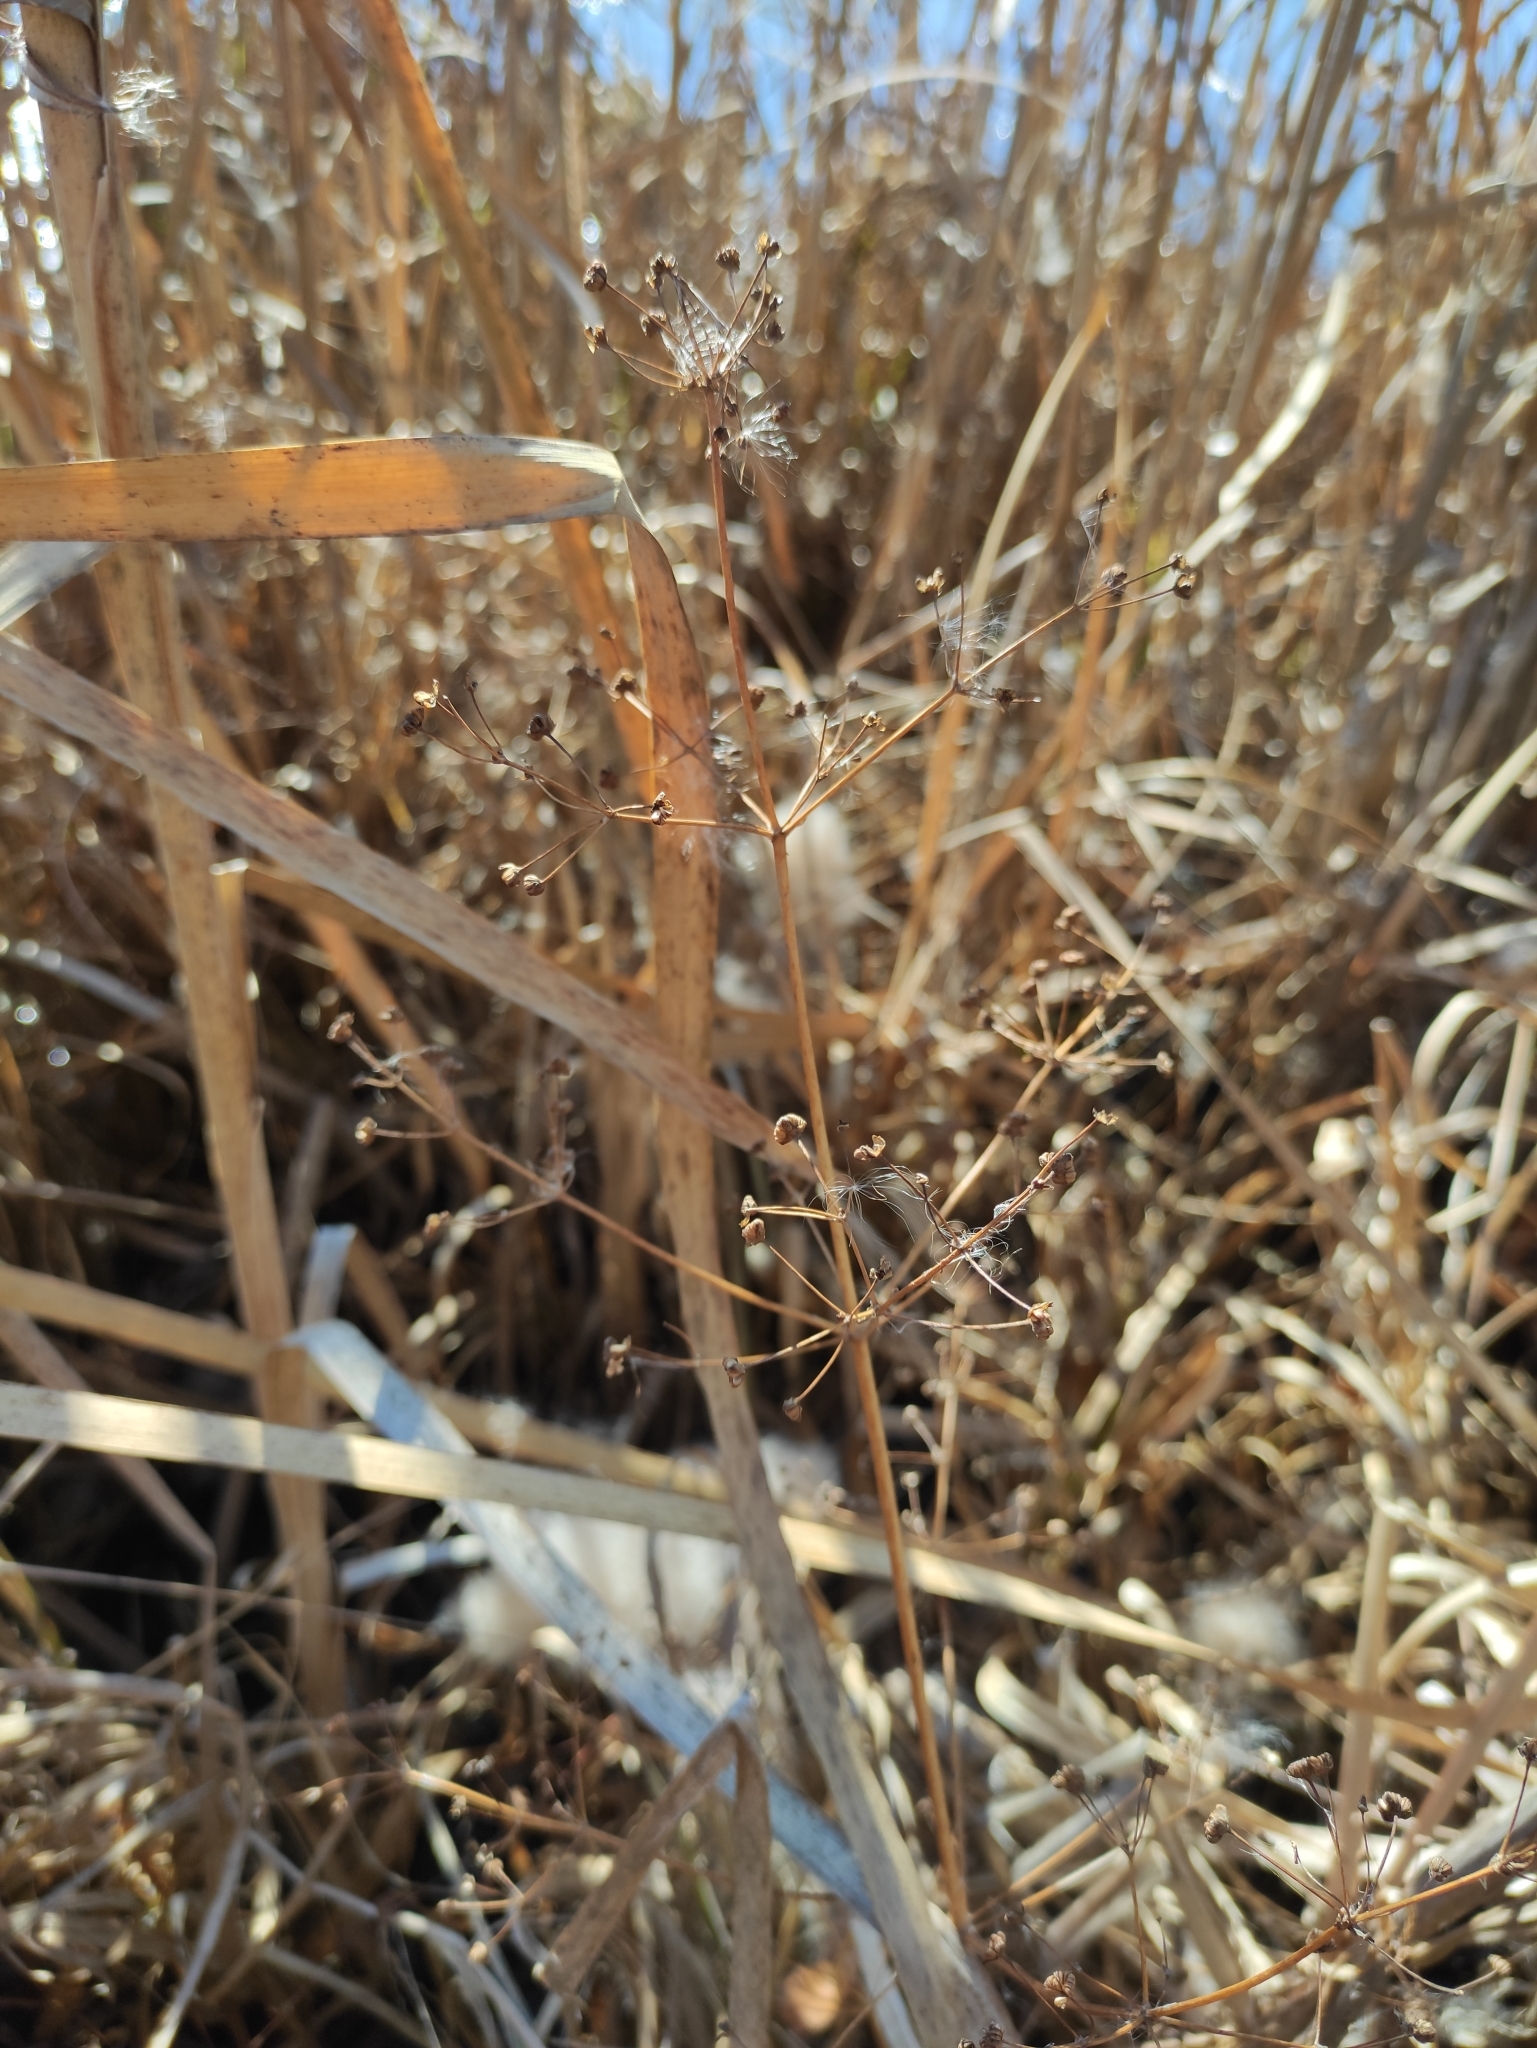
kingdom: Plantae
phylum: Tracheophyta
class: Liliopsida
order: Alismatales
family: Alismataceae
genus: Alisma
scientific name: Alisma plantago-aquatica
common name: Water-plantain
